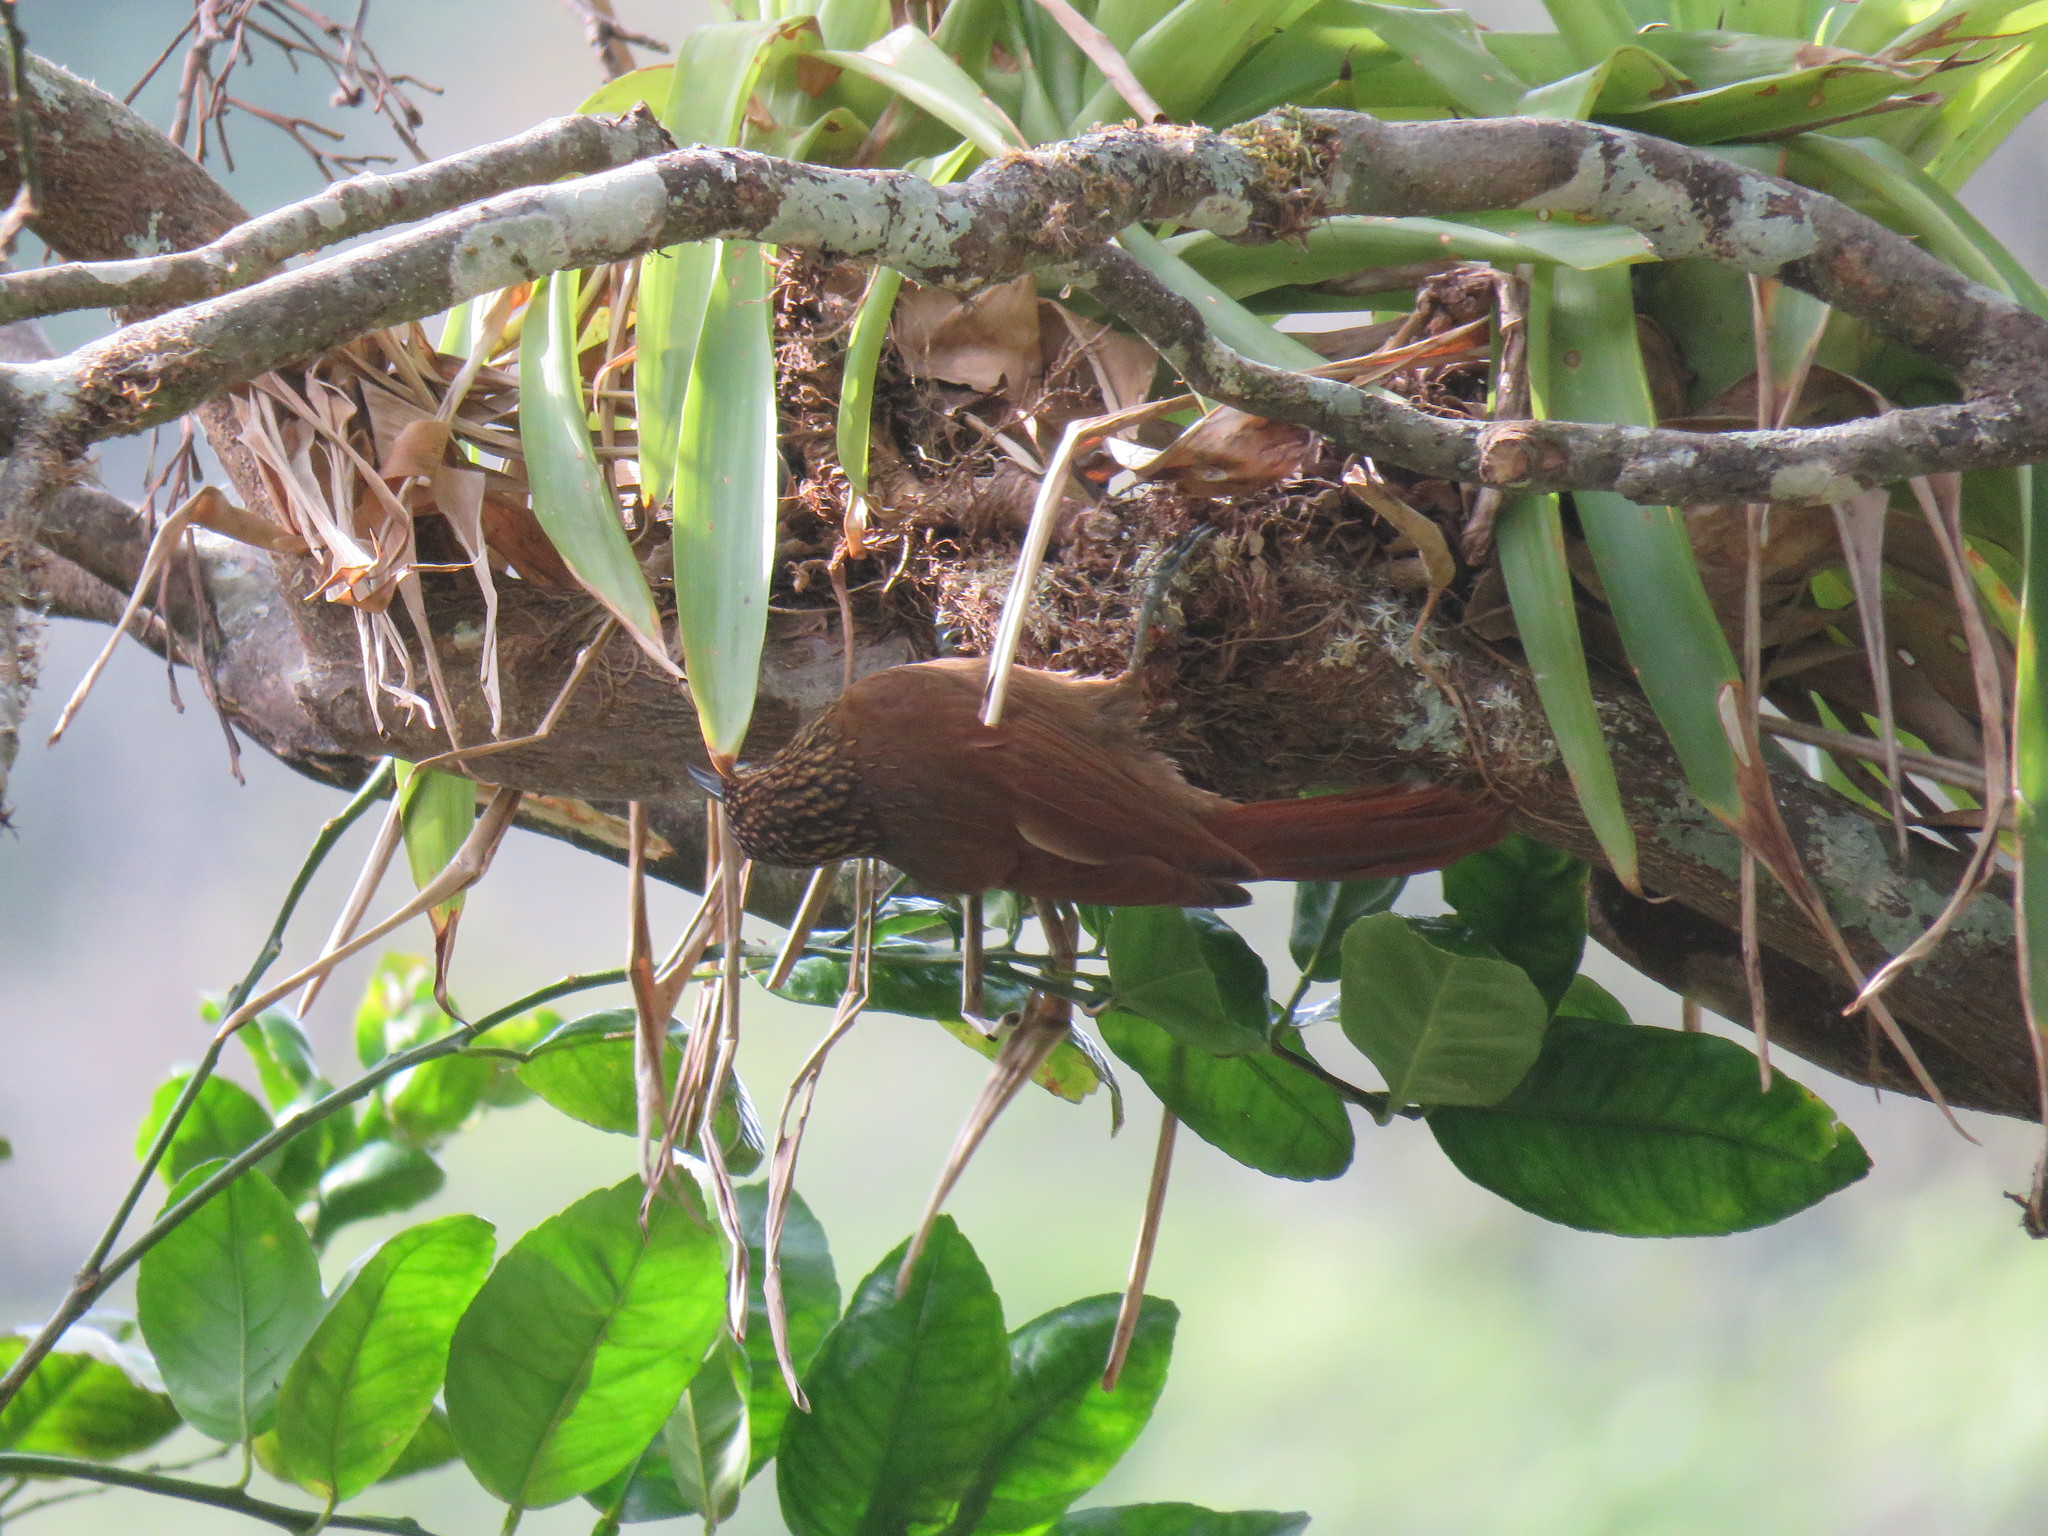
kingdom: Animalia
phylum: Chordata
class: Aves
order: Passeriformes
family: Furnariidae
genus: Xiphorhynchus
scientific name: Xiphorhynchus susurrans
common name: Cocoa woodcreeper
